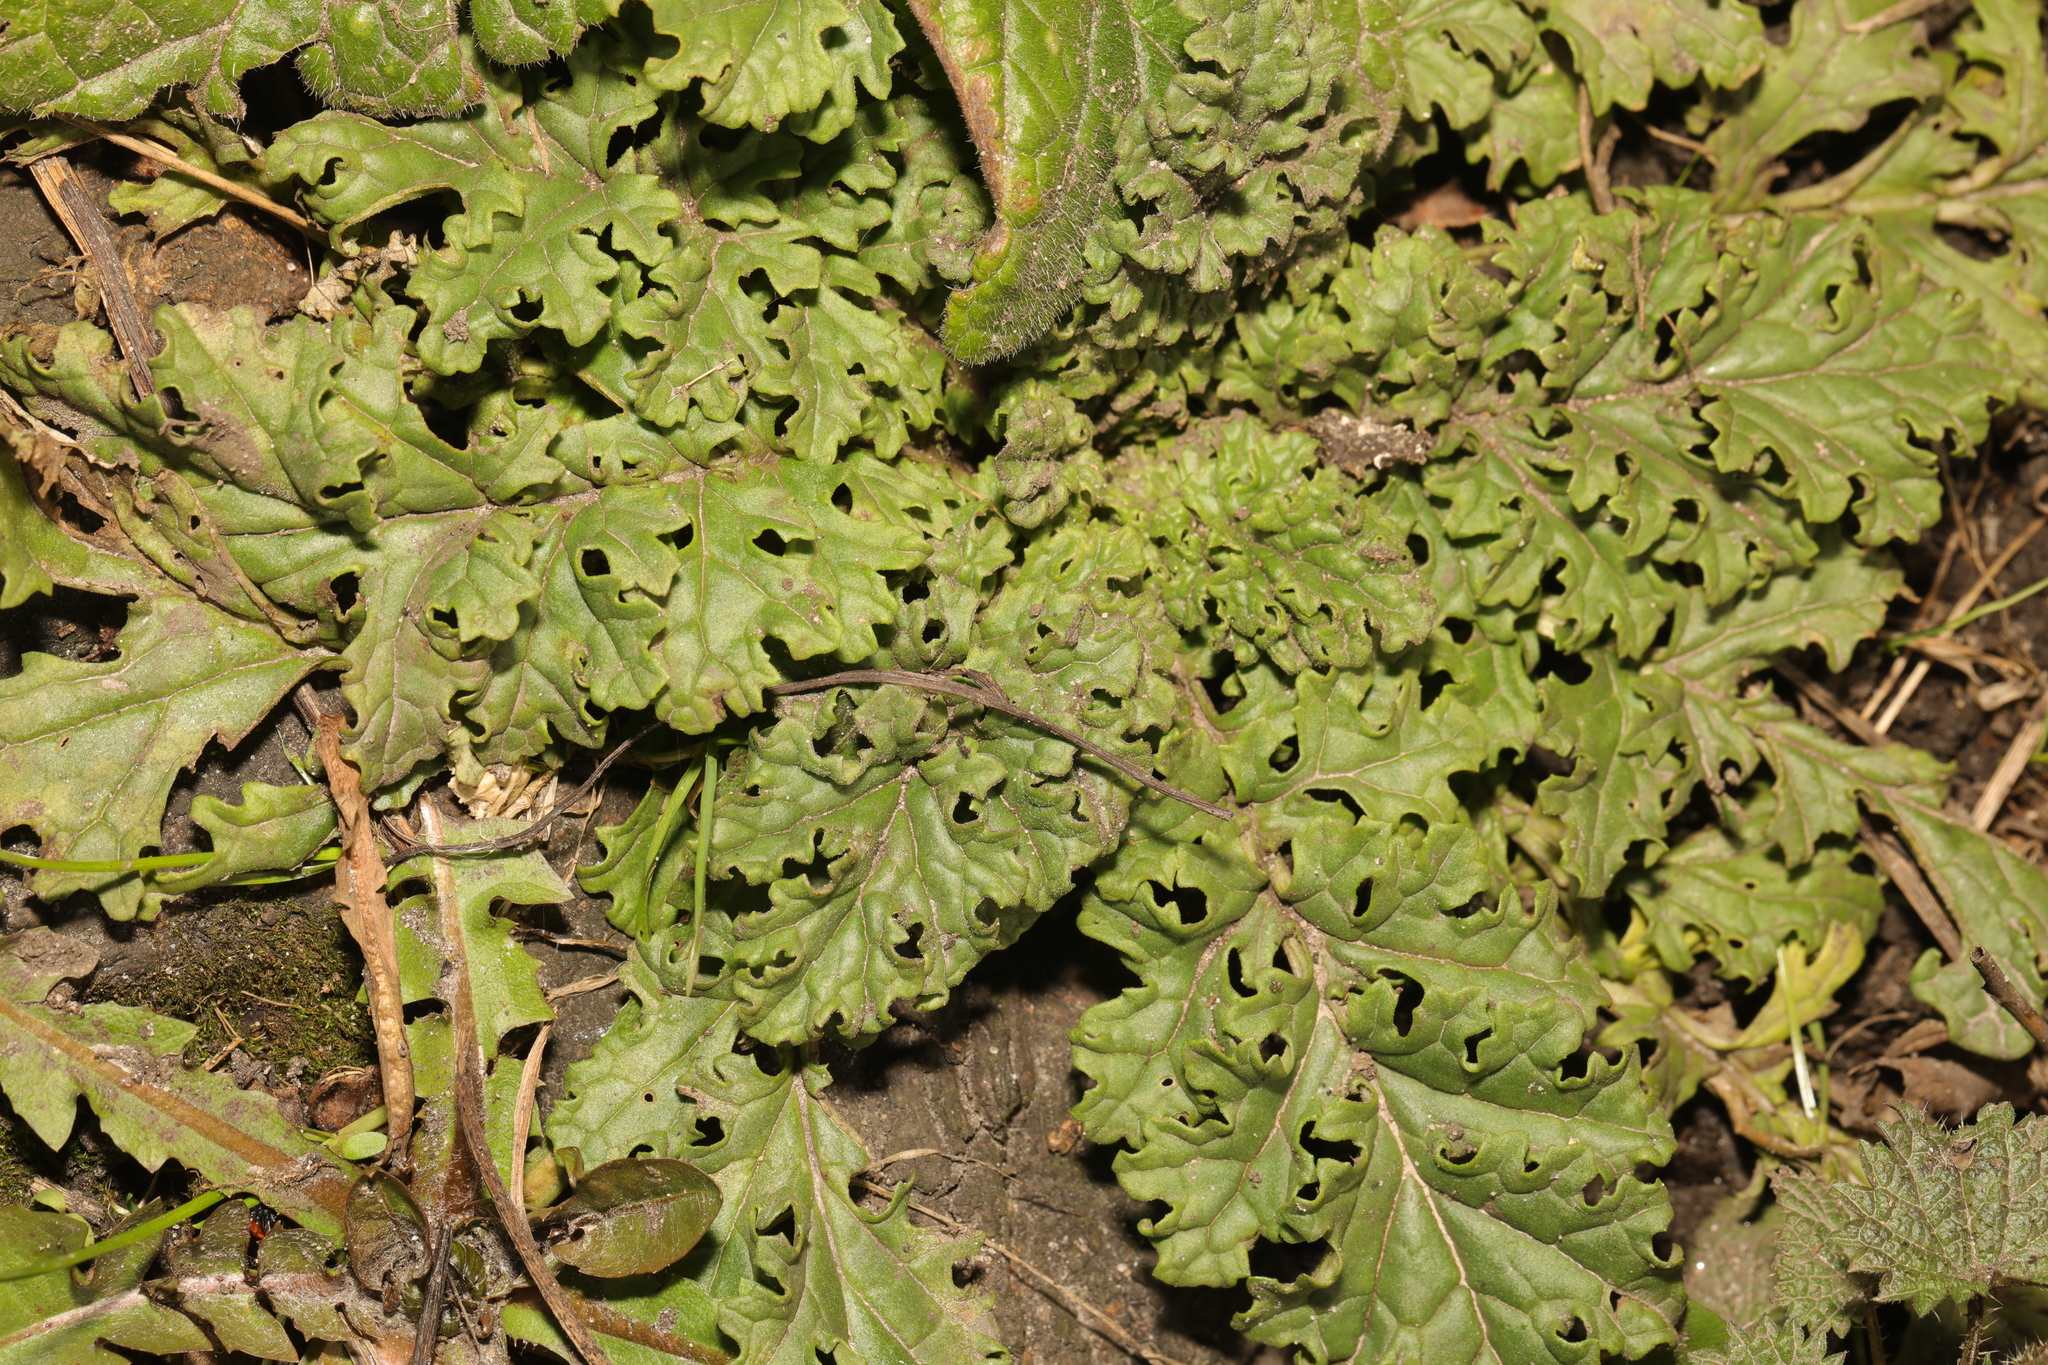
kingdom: Plantae
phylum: Tracheophyta
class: Magnoliopsida
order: Asterales
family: Asteraceae
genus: Jacobaea
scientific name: Jacobaea vulgaris
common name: Stinking willie
